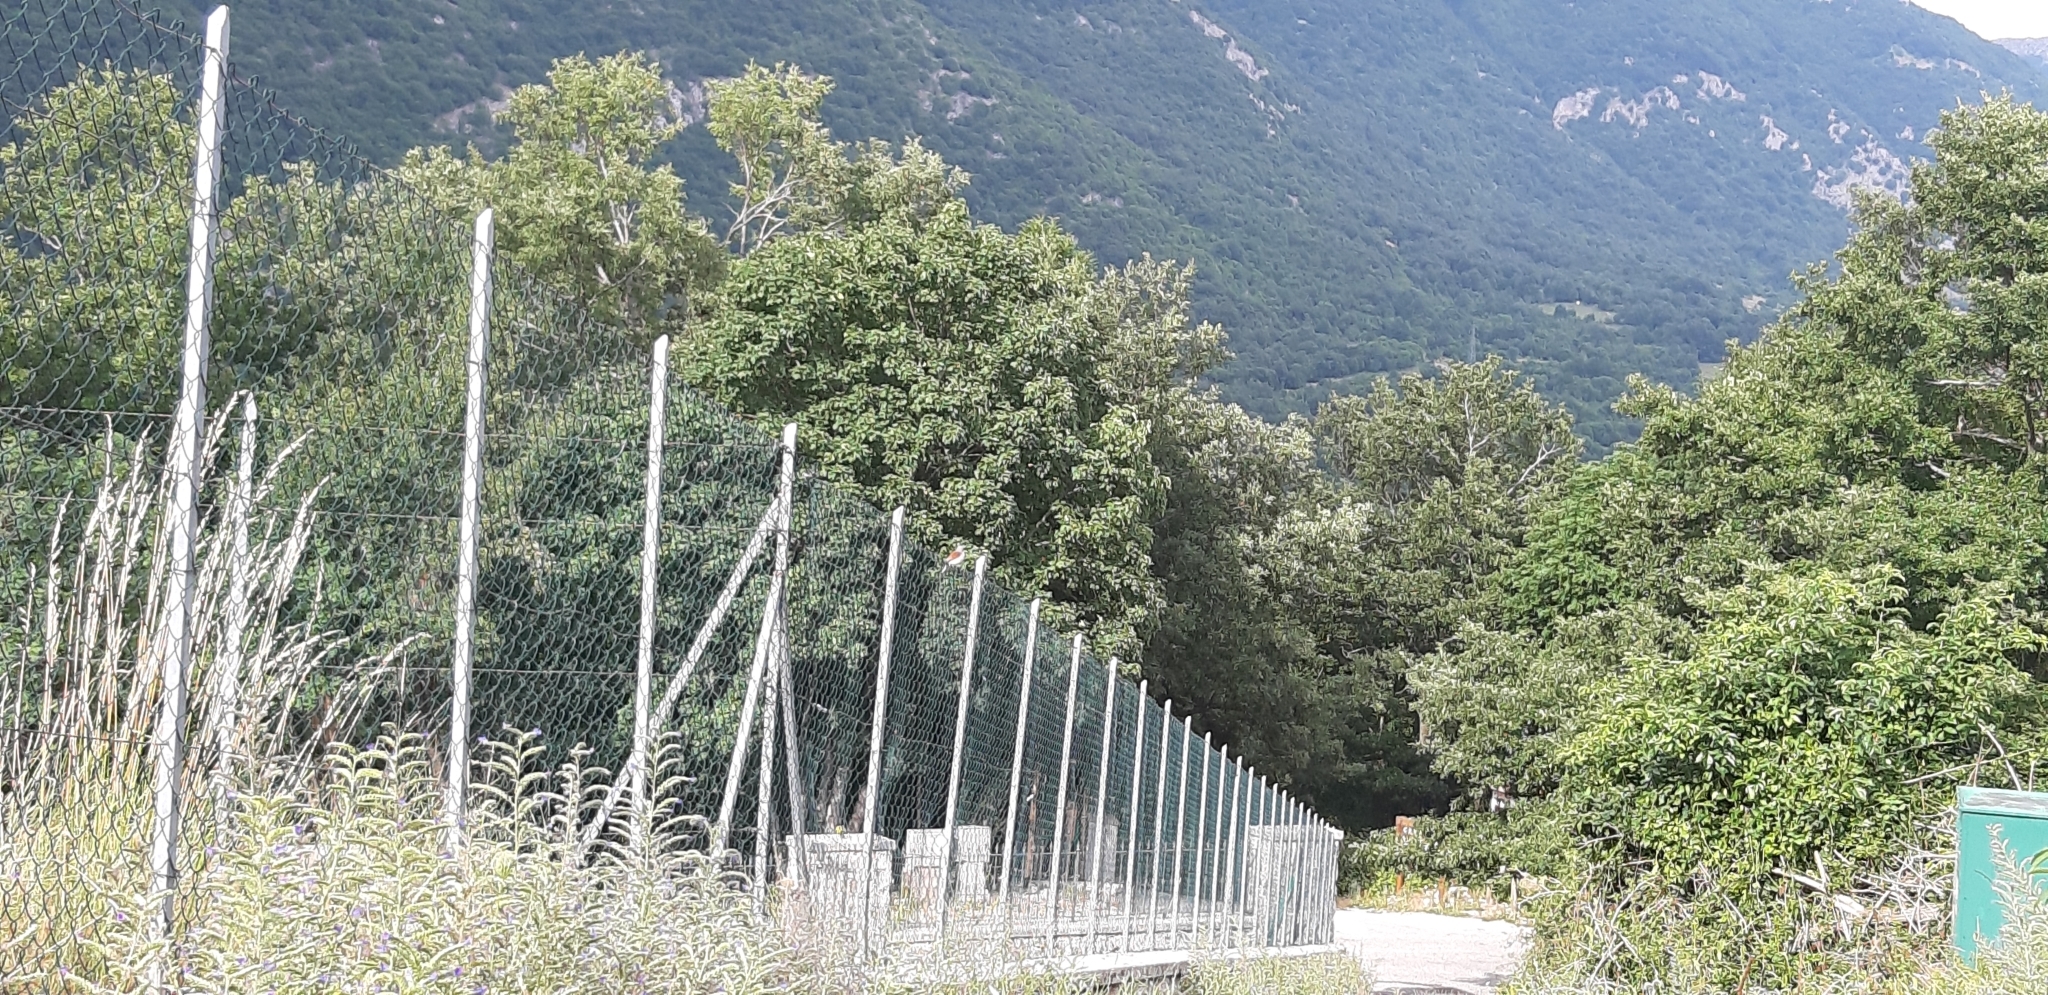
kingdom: Animalia
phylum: Chordata
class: Aves
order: Passeriformes
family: Laniidae
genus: Lanius
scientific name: Lanius collurio
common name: Red-backed shrike
